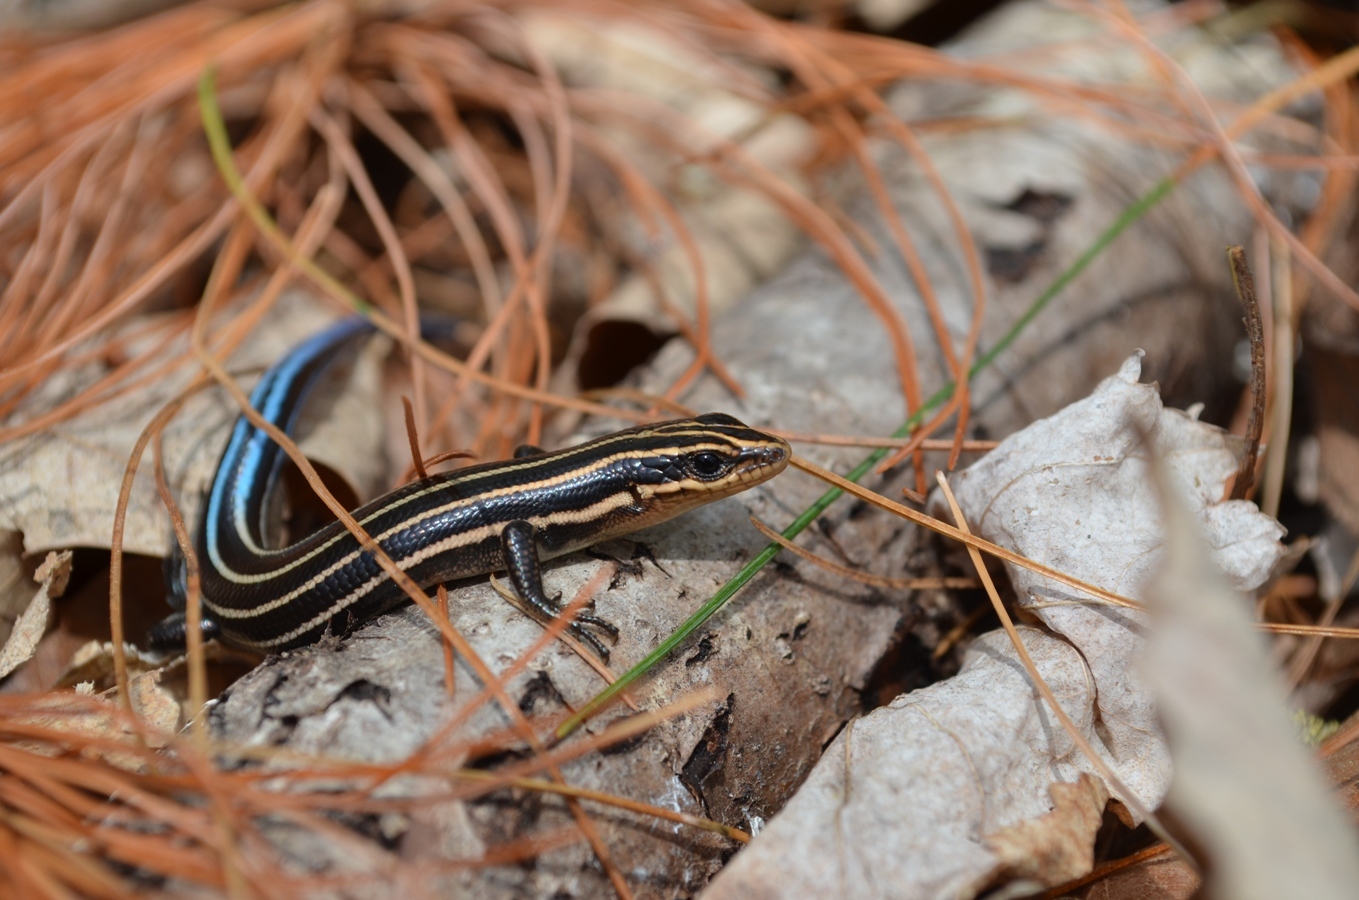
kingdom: Animalia
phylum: Chordata
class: Squamata
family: Scincidae
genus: Plestiodon
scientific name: Plestiodon fasciatus
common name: Five-lined skink
